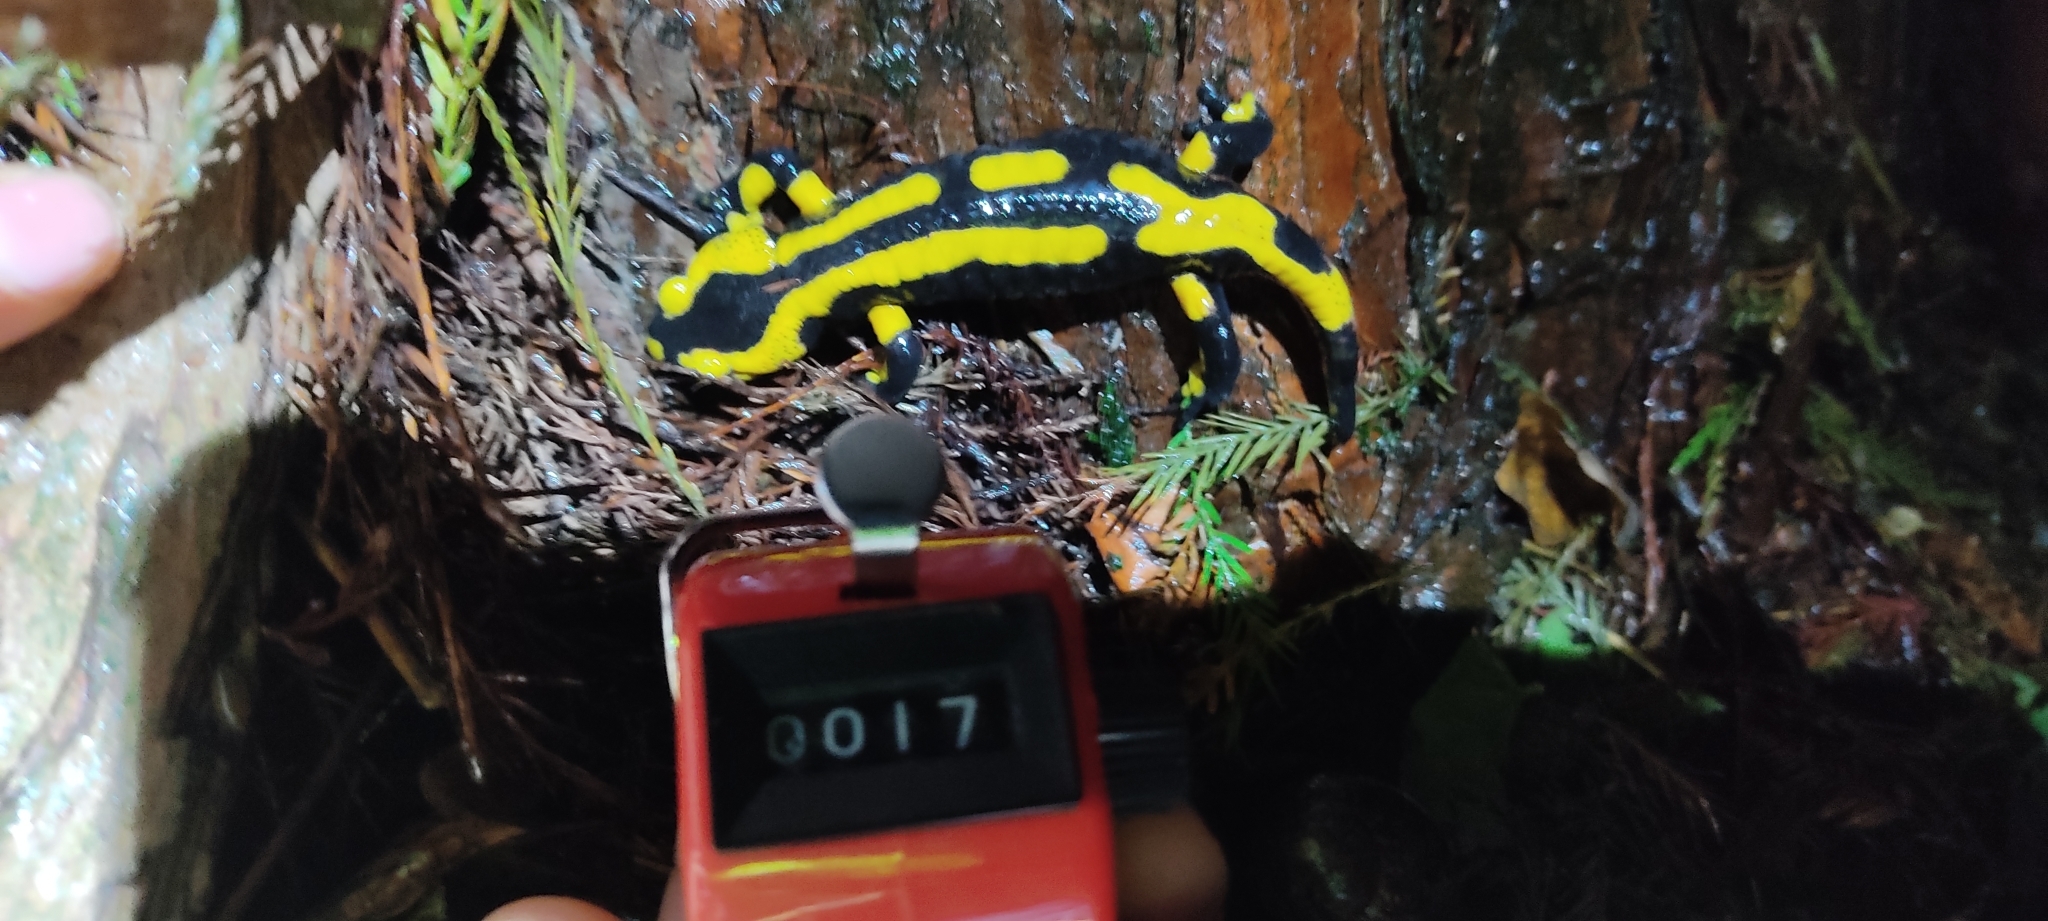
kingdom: Animalia
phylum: Chordata
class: Amphibia
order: Caudata
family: Salamandridae
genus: Salamandra
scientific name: Salamandra salamandra
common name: Fire salamander
